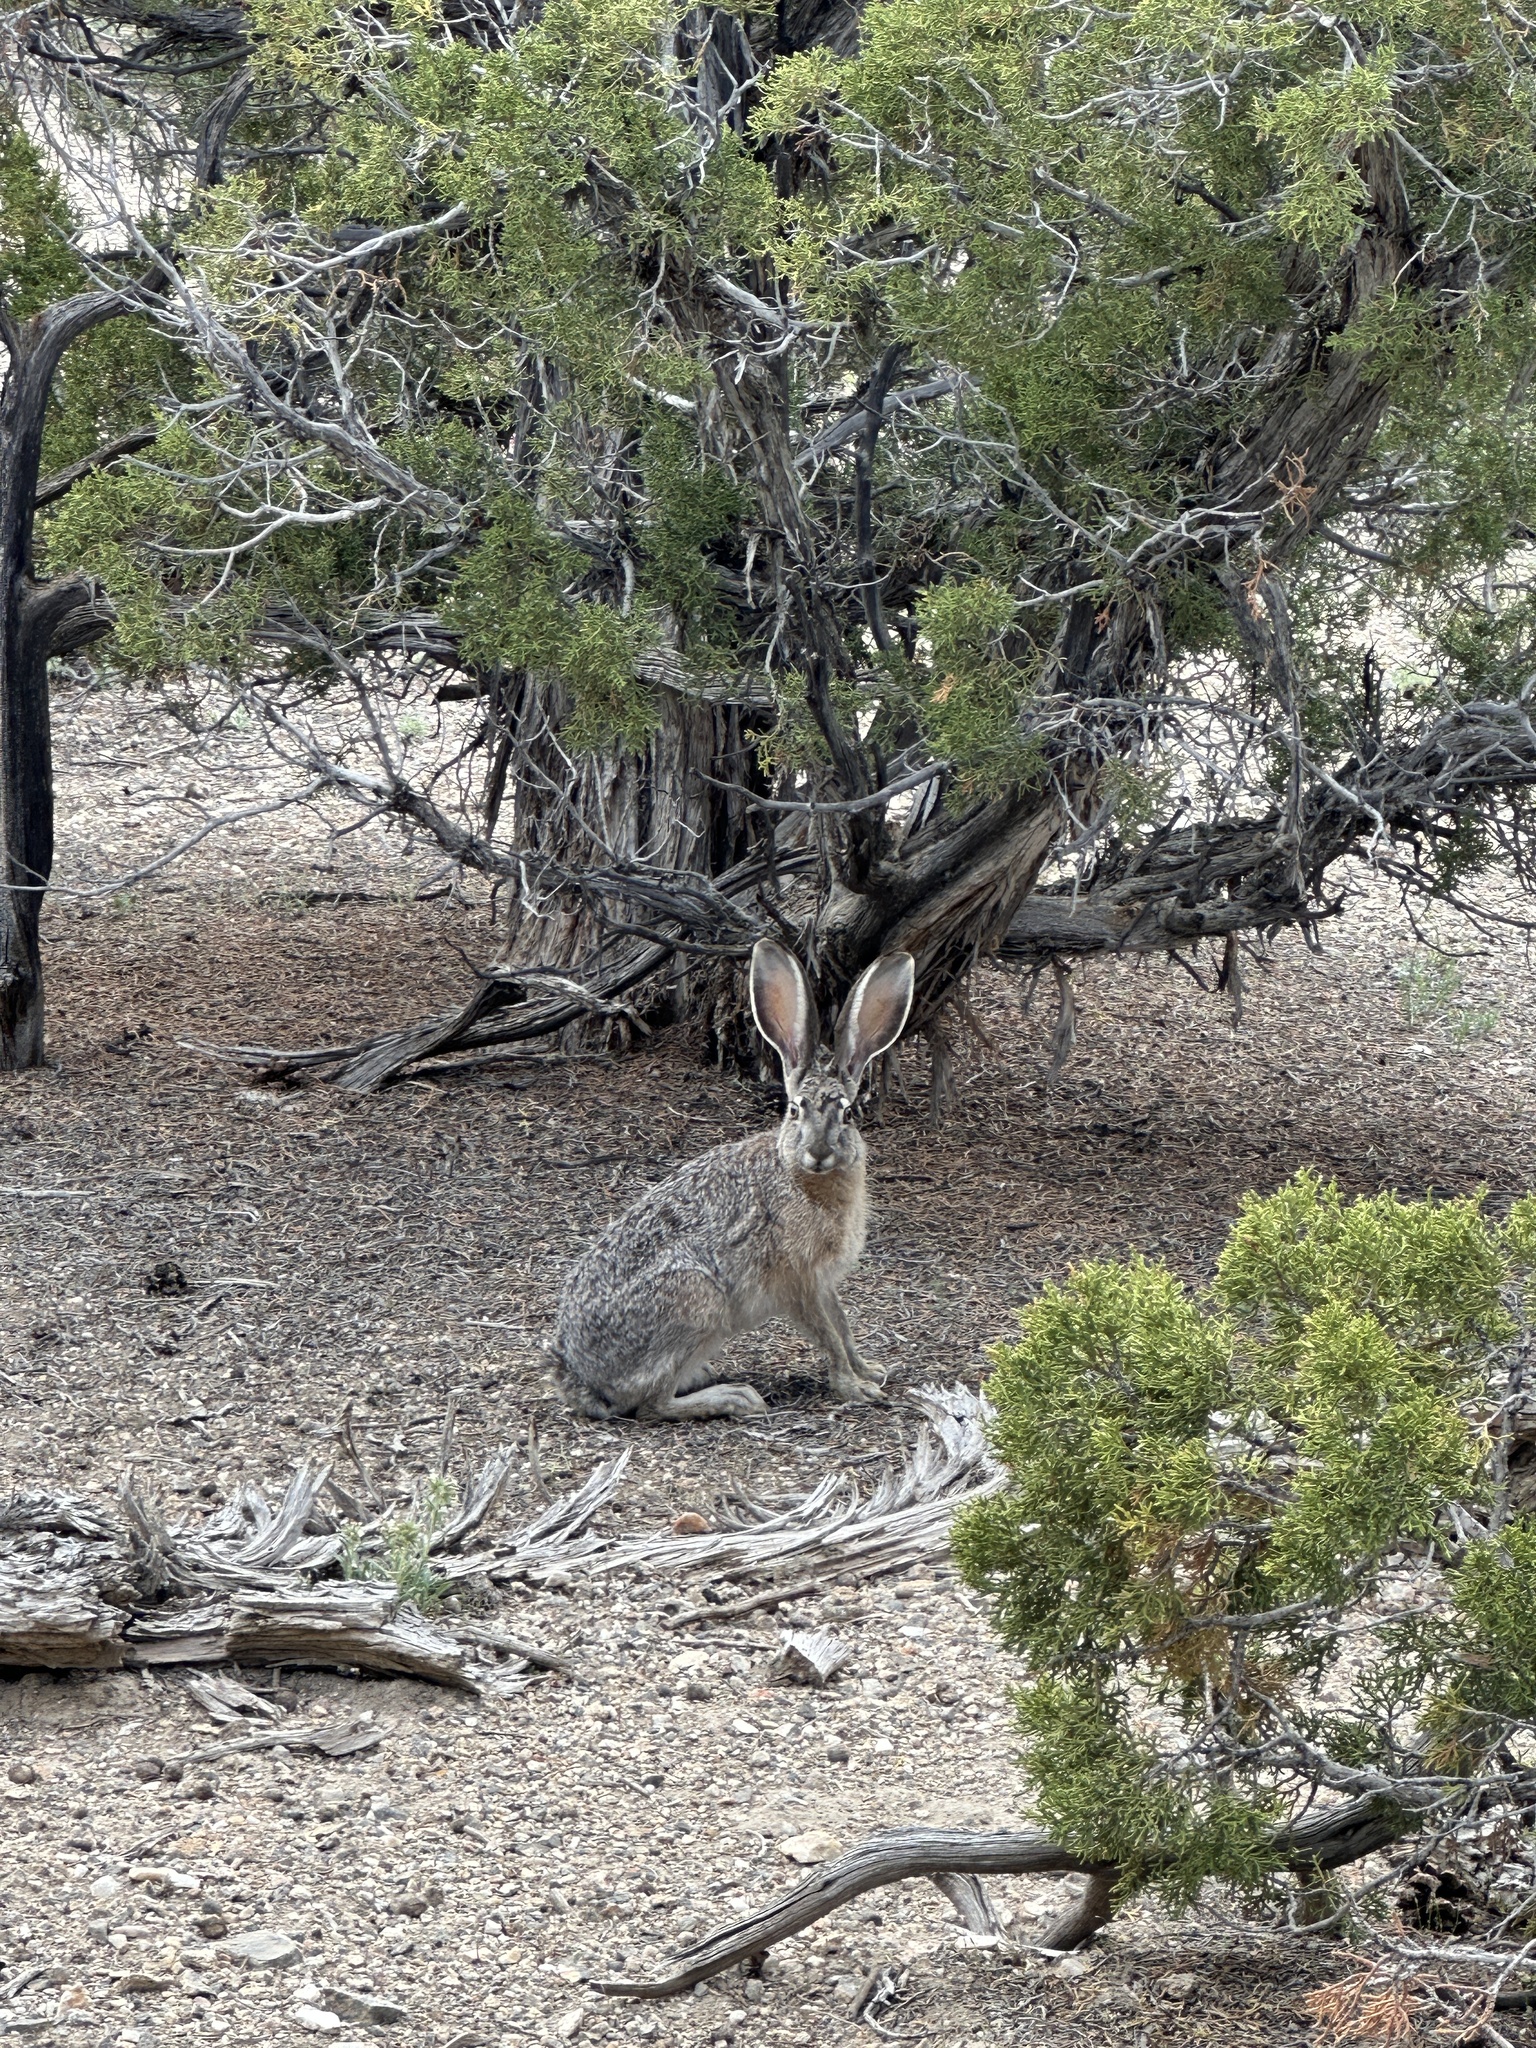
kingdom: Animalia
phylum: Chordata
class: Mammalia
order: Lagomorpha
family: Leporidae
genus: Lepus
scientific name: Lepus californicus
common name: Black-tailed jackrabbit
